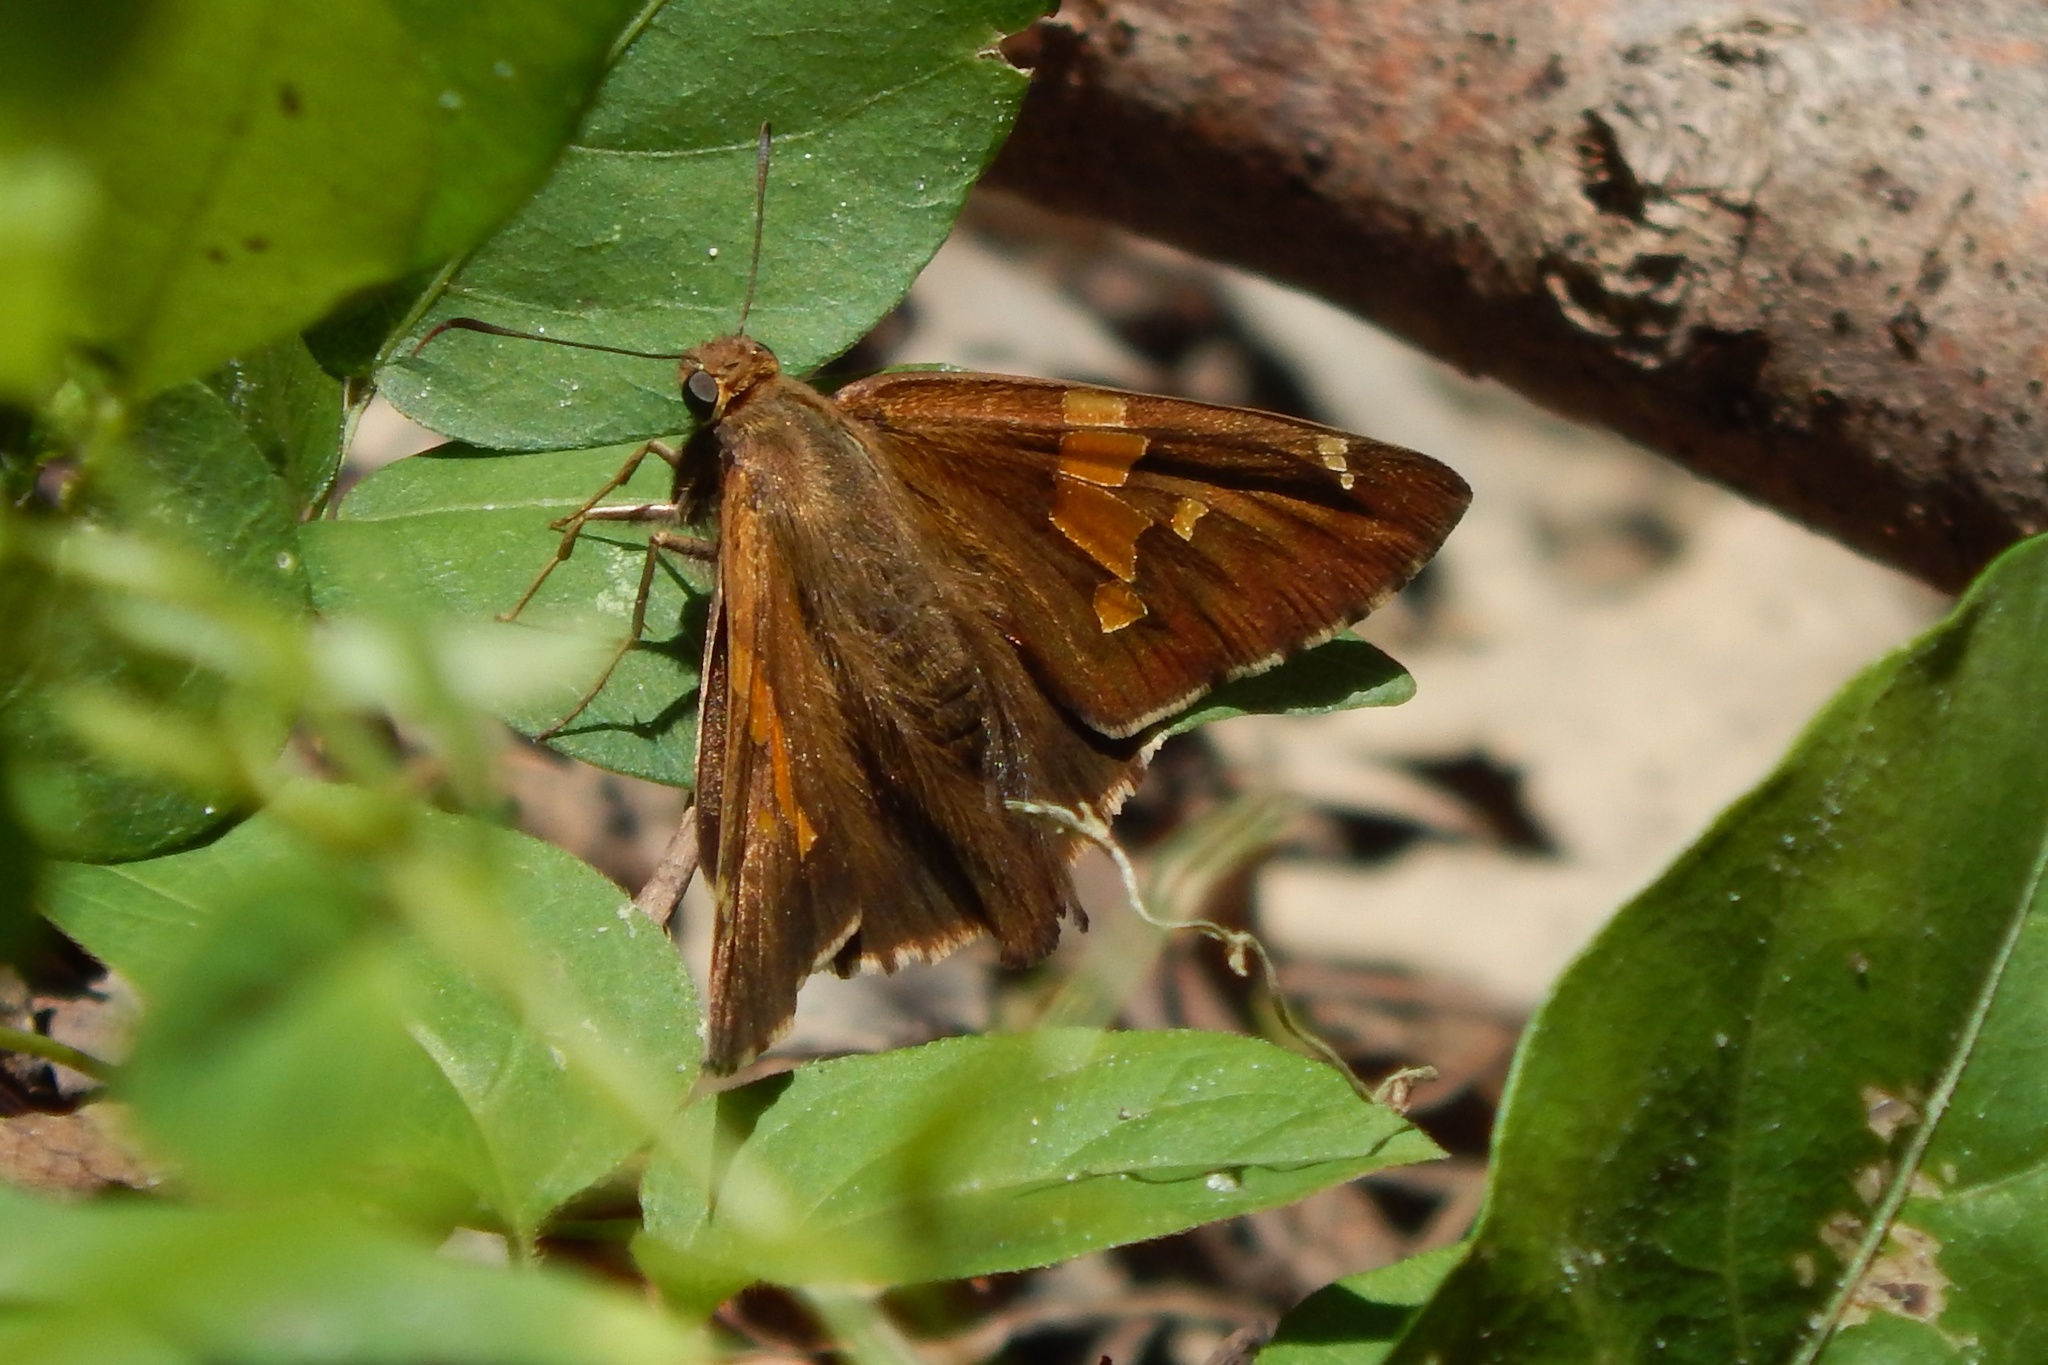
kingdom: Animalia
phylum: Arthropoda
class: Insecta
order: Lepidoptera
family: Hesperiidae
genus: Epargyreus
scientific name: Epargyreus clarus
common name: Silver-spotted skipper
